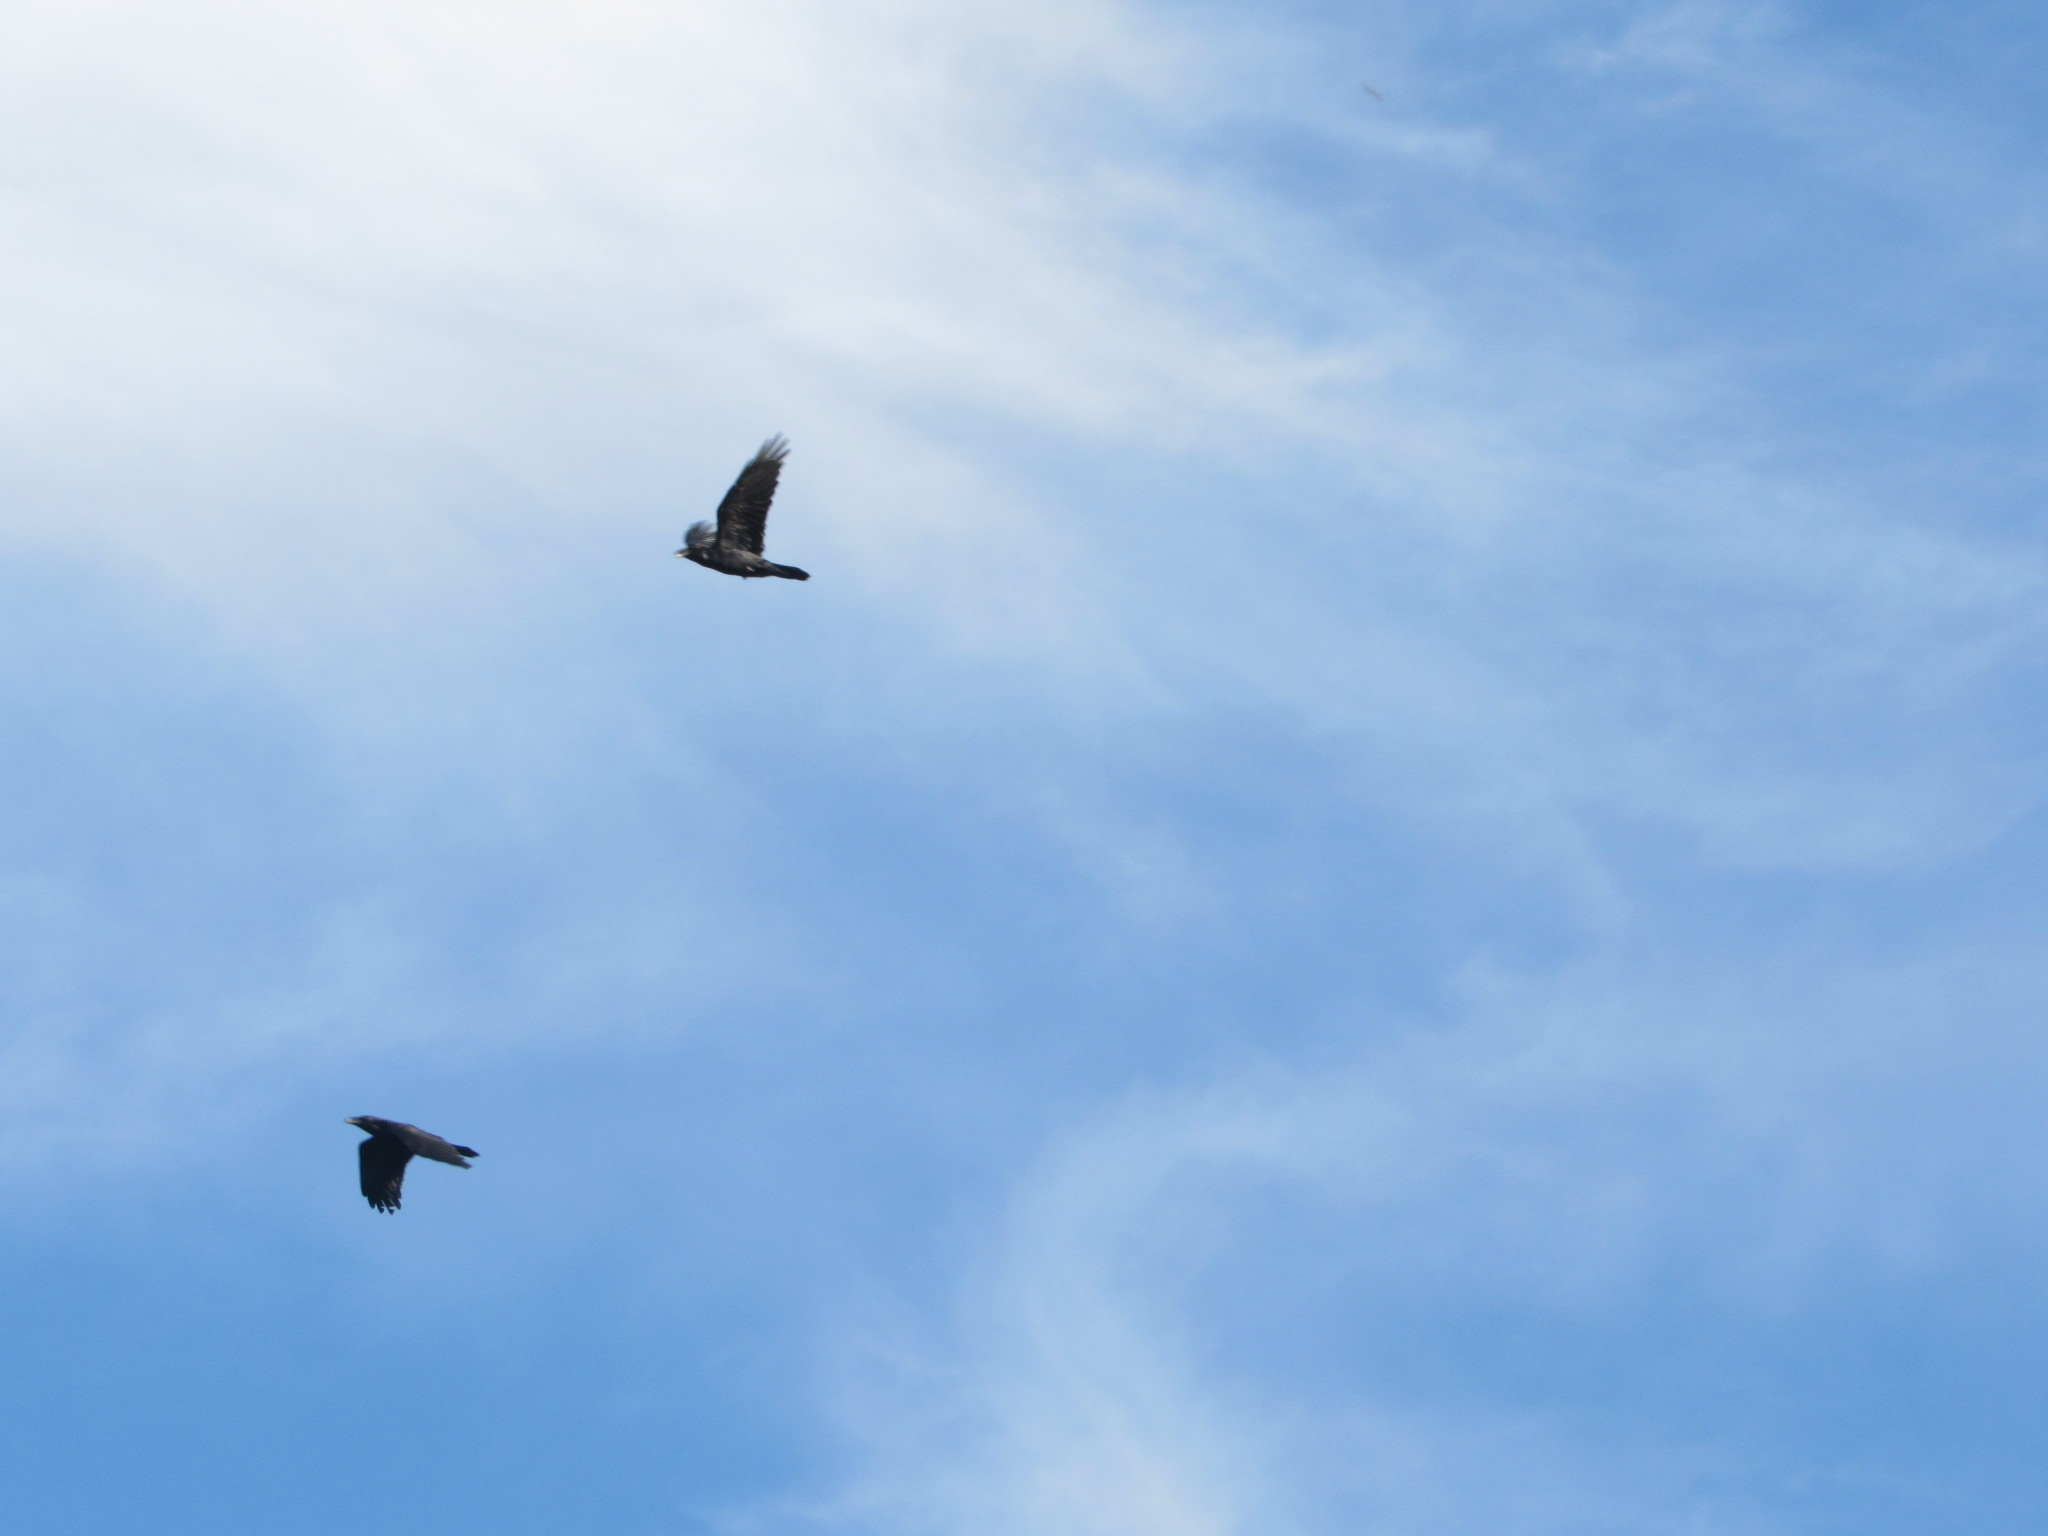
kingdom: Animalia
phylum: Chordata
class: Aves
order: Passeriformes
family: Corvidae
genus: Corvus
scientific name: Corvus corax
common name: Common raven
